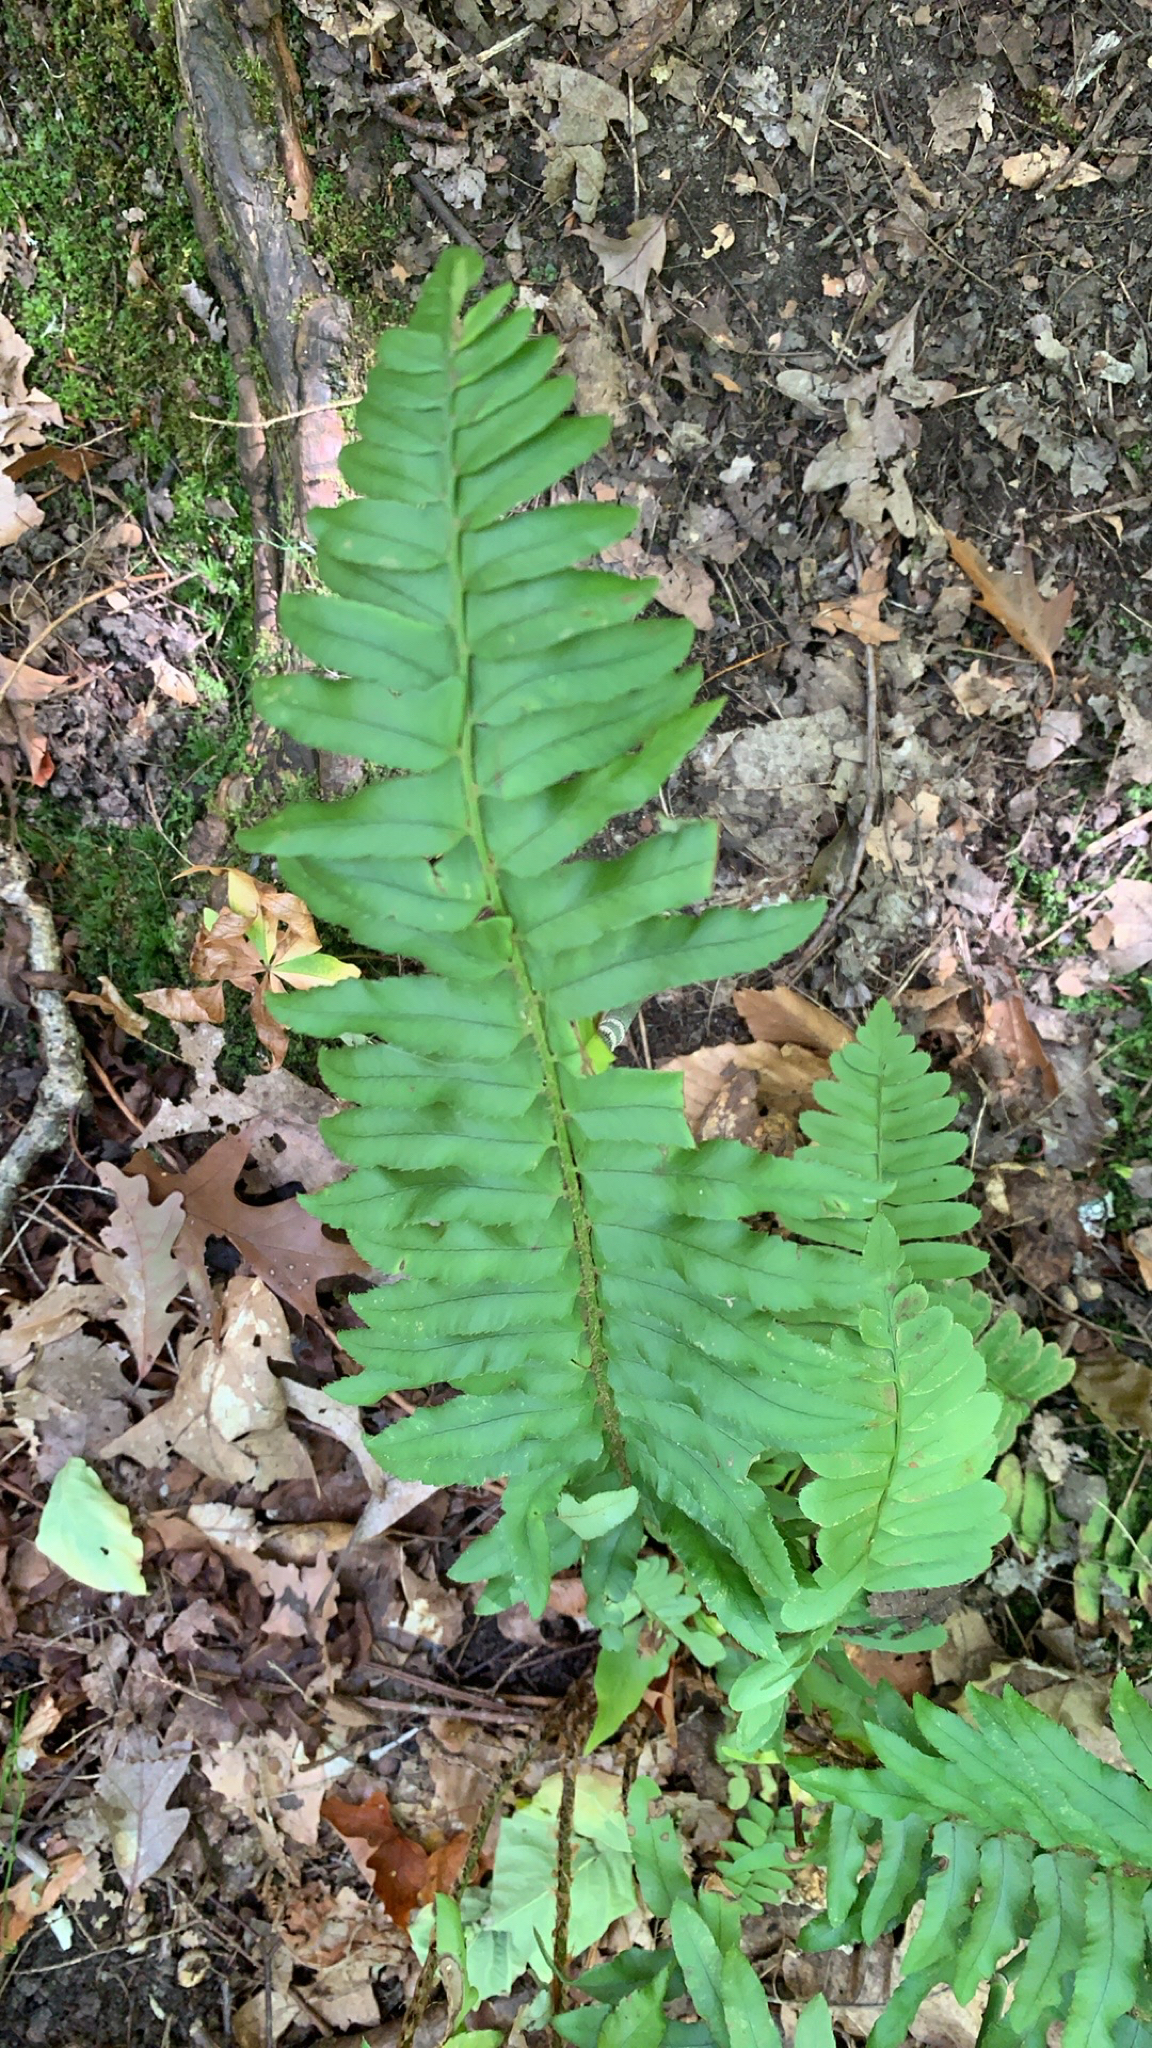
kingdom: Plantae
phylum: Tracheophyta
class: Polypodiopsida
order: Polypodiales
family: Dryopteridaceae
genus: Polystichum
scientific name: Polystichum acrostichoides
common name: Christmas fern
